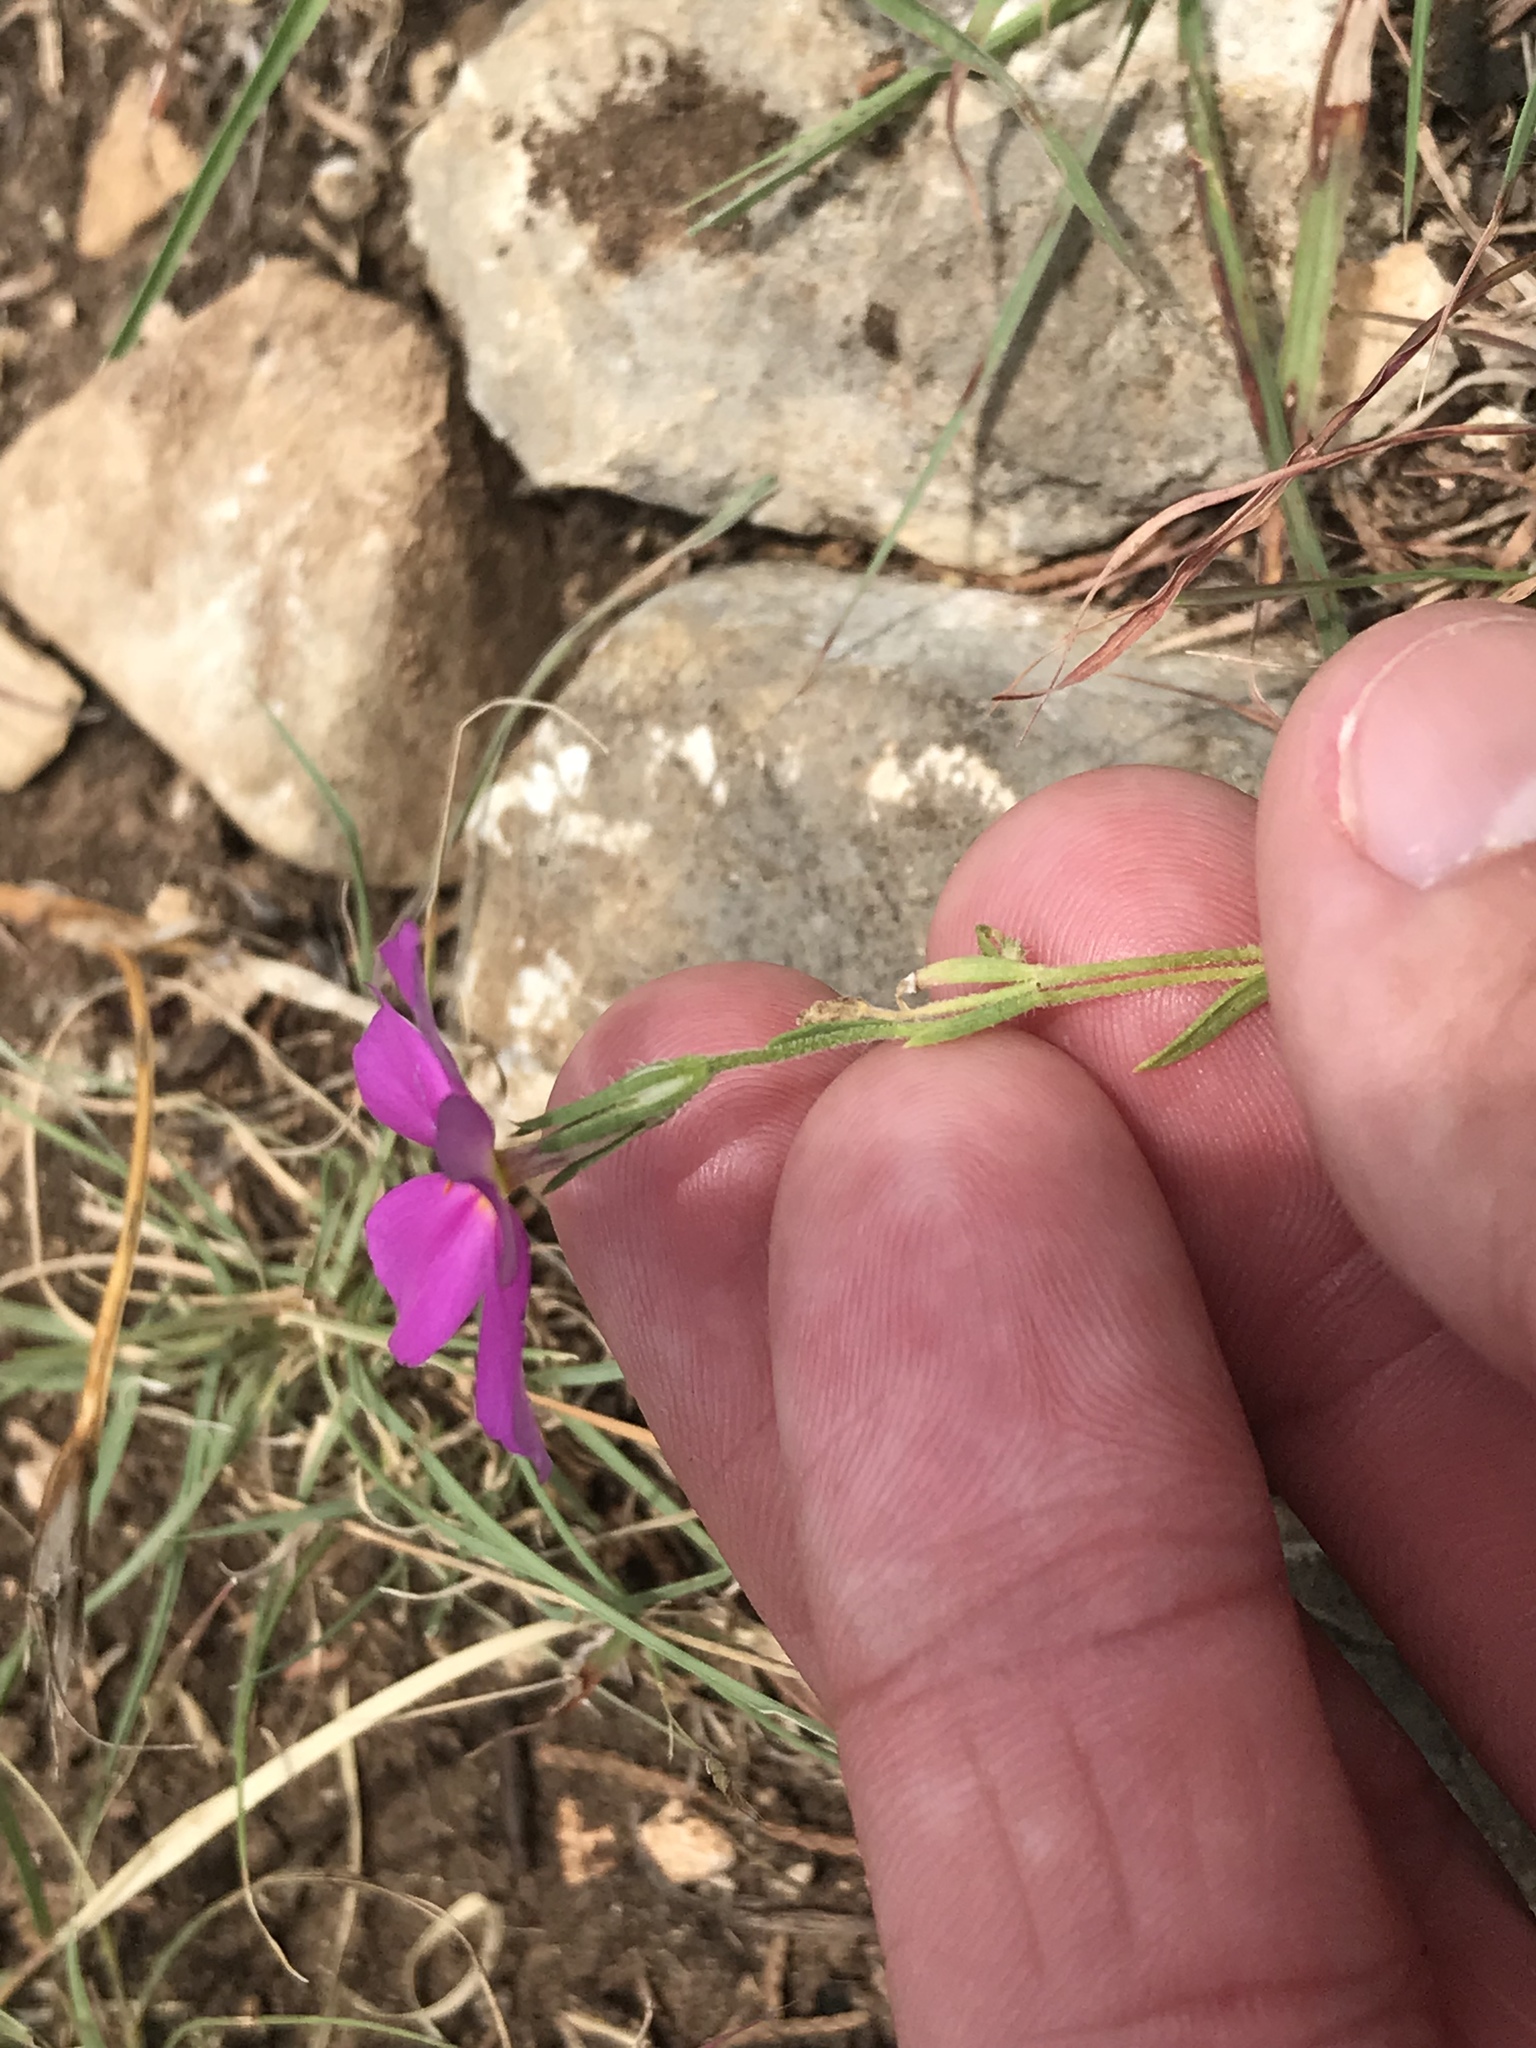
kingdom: Plantae
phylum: Tracheophyta
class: Magnoliopsida
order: Ericales
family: Polemoniaceae
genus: Phlox
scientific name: Phlox roemeriana
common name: Roemer's phlox
